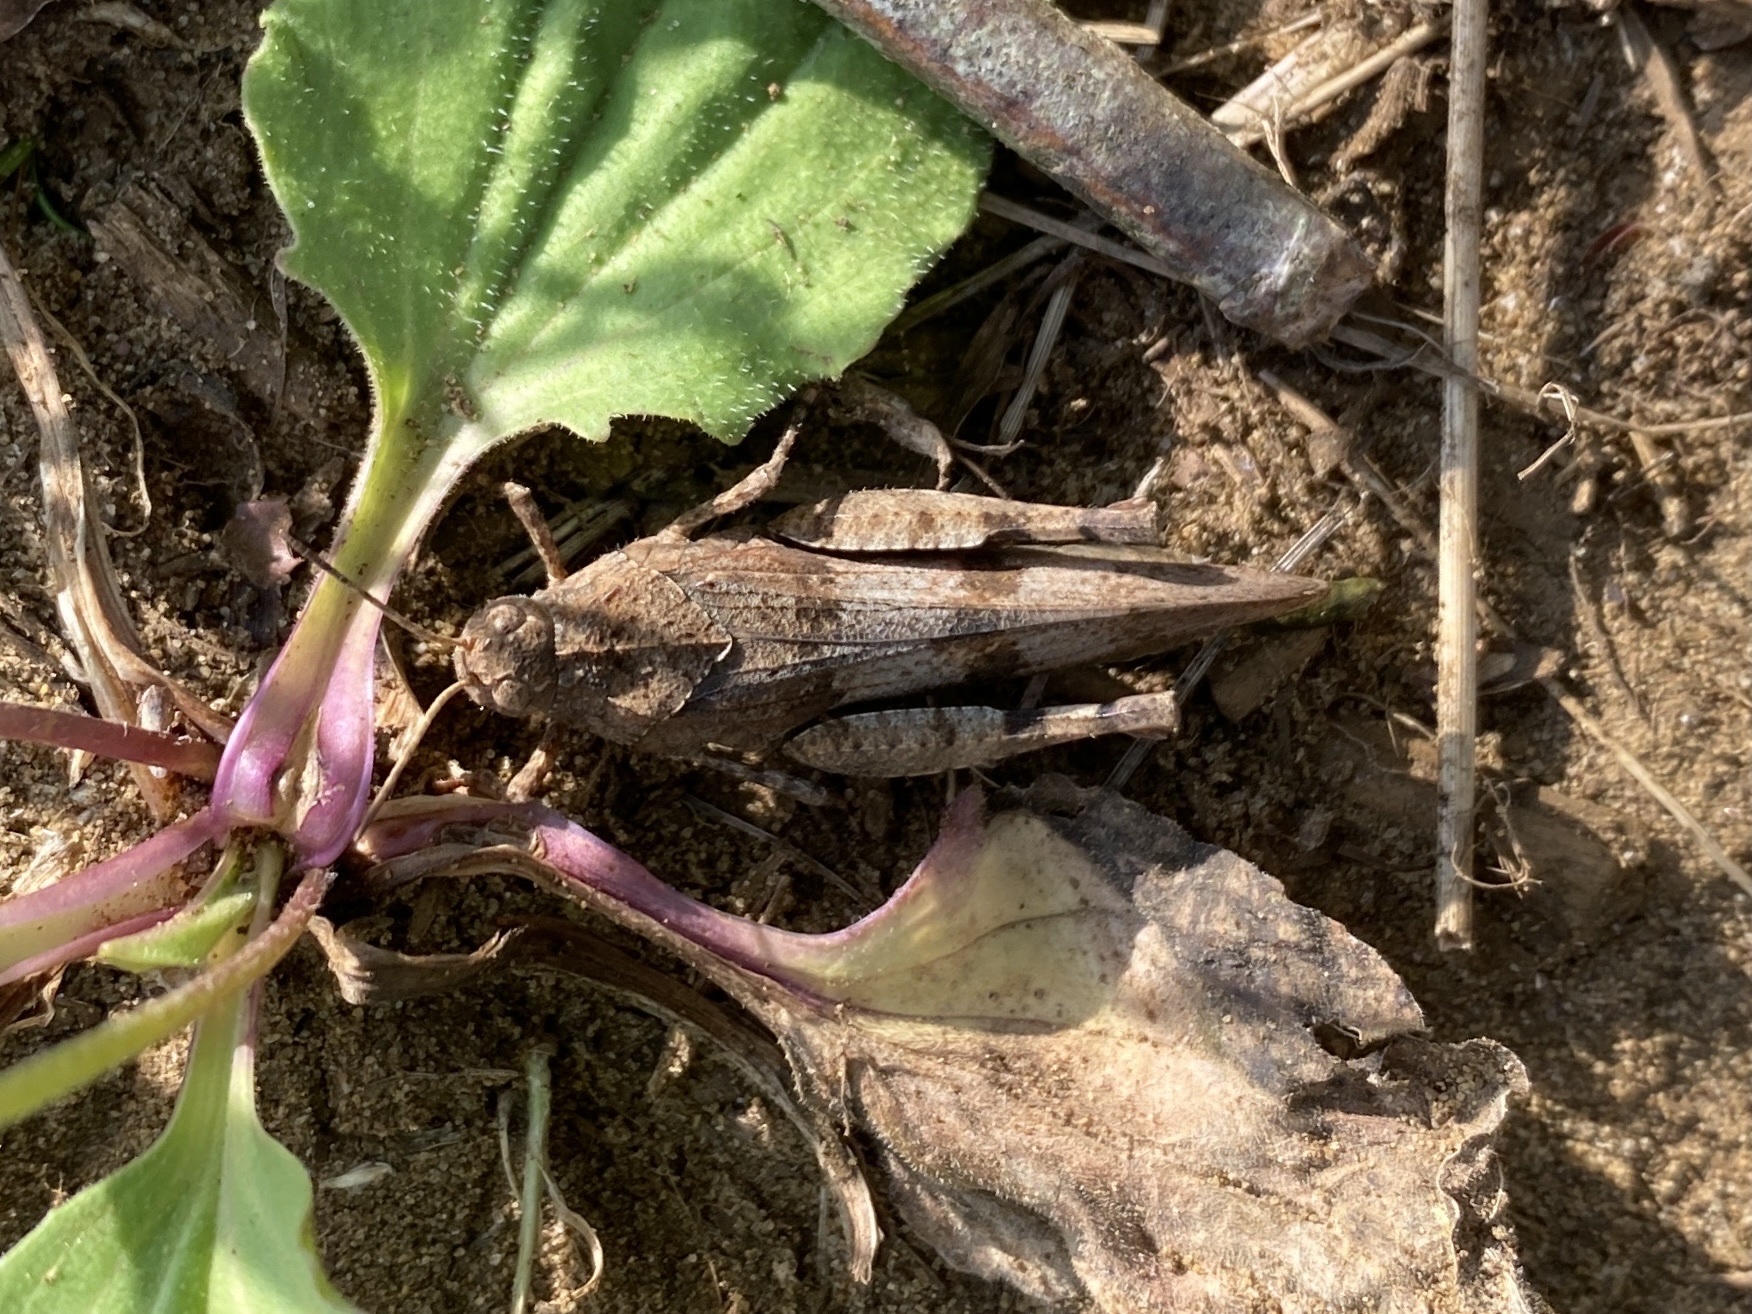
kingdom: Animalia
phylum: Arthropoda
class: Insecta
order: Orthoptera
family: Acrididae
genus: Oedipoda
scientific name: Oedipoda caerulescens
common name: Blue-winged grasshopper
